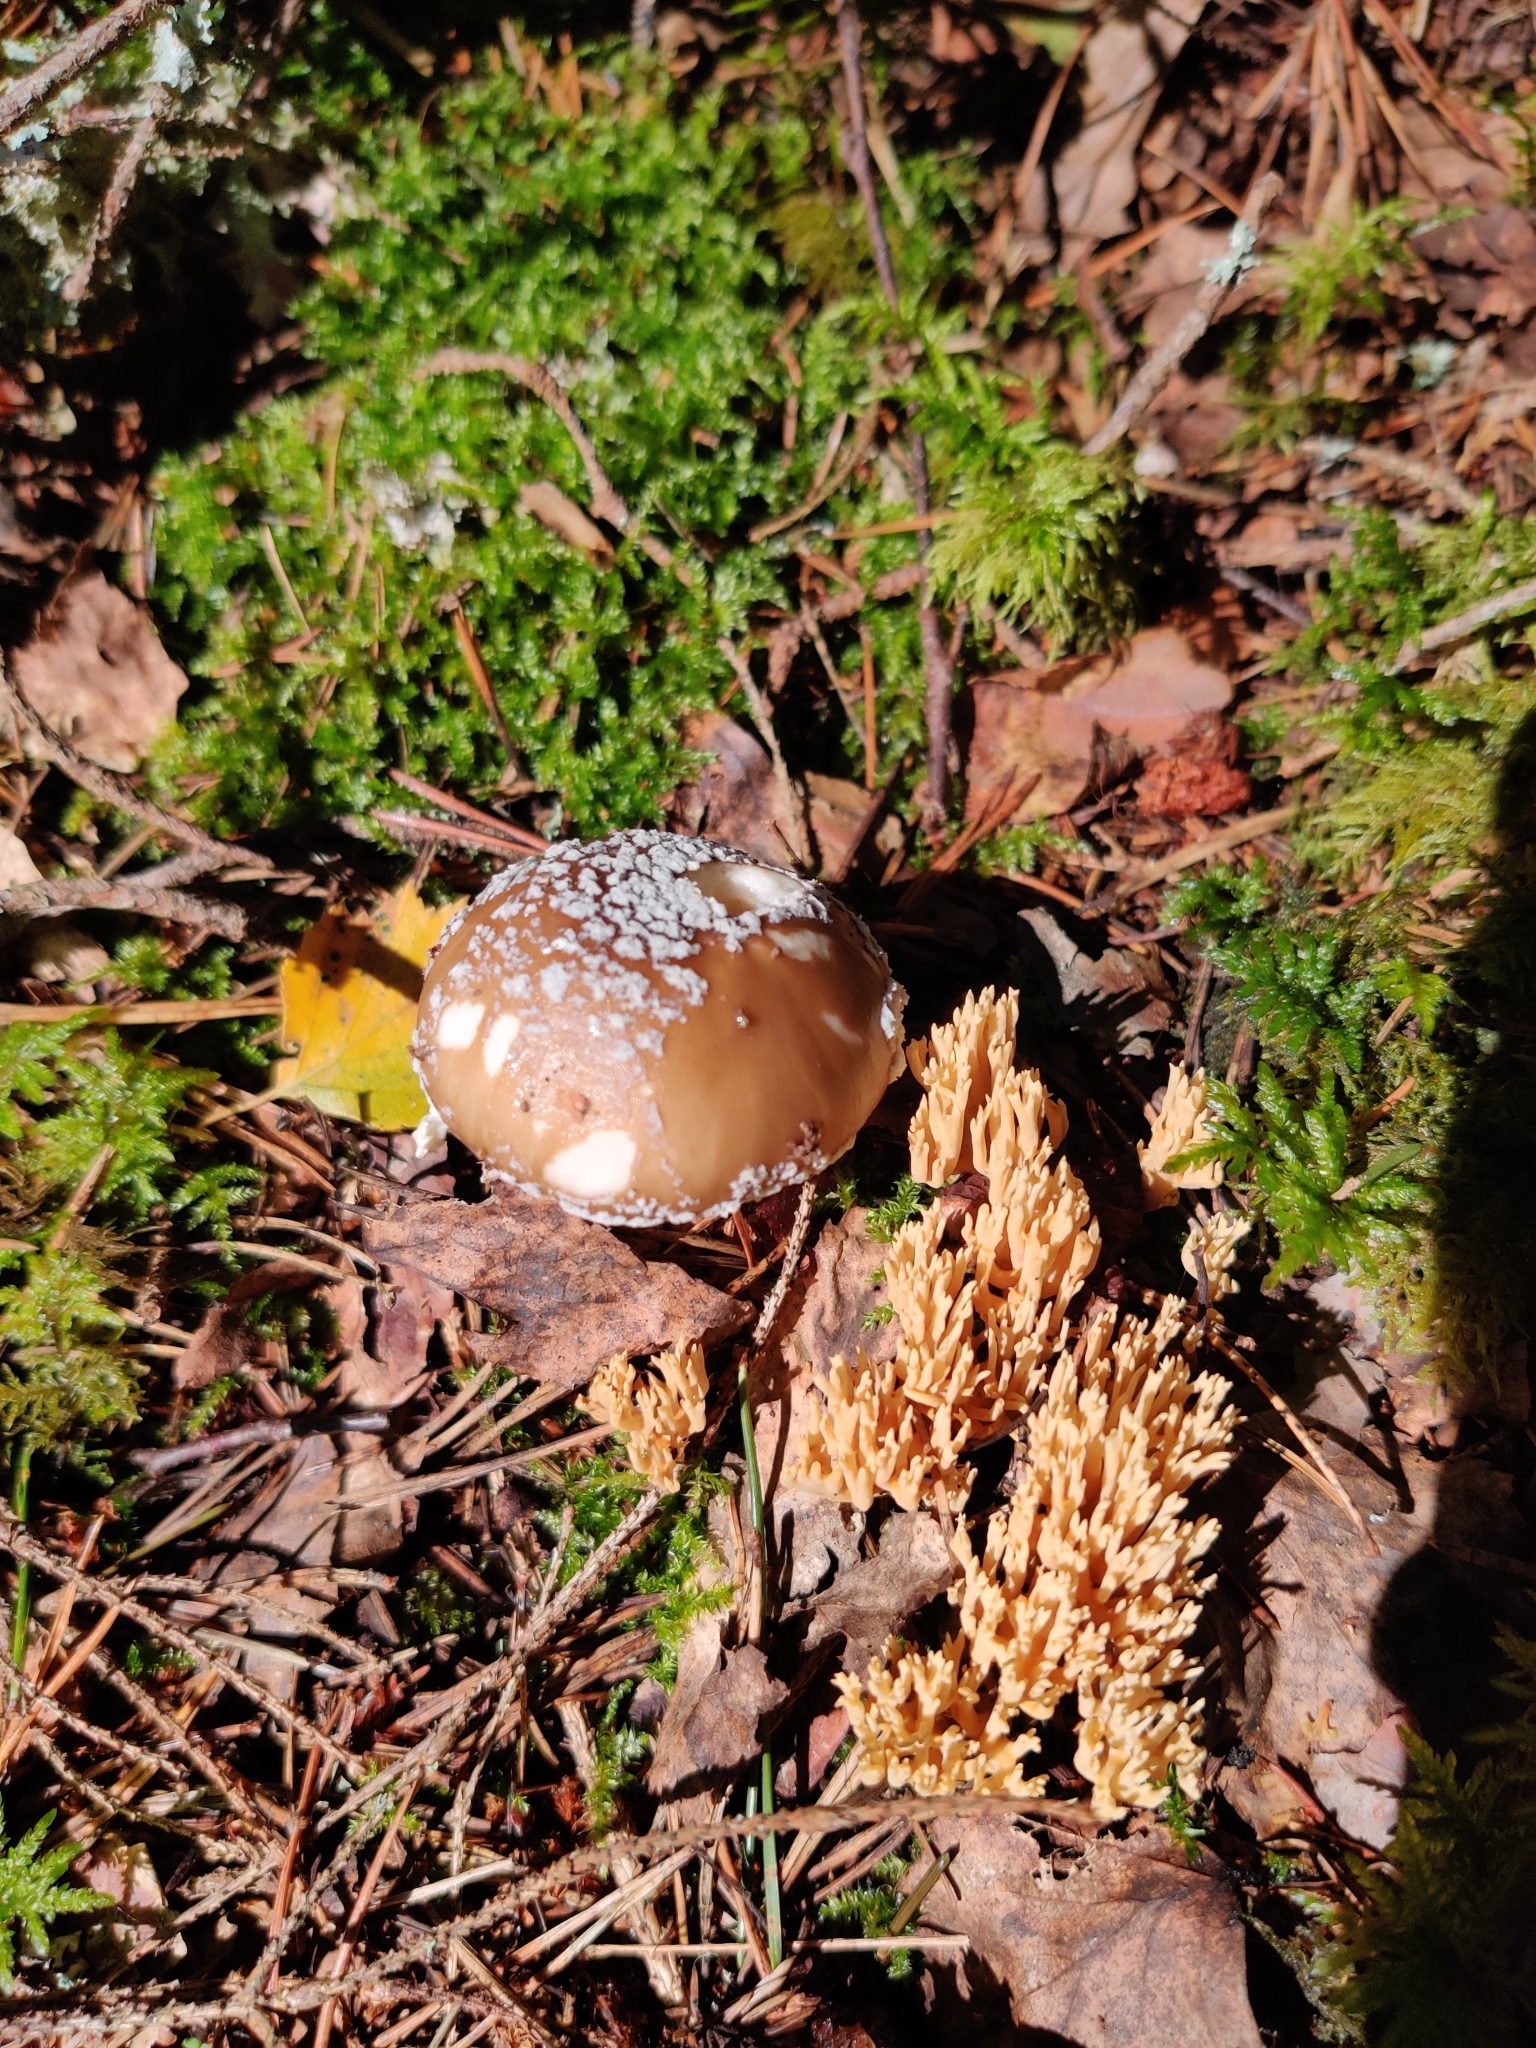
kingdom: Fungi
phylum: Basidiomycota
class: Agaricomycetes
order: Agaricales
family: Amanitaceae
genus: Amanita
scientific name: Amanita rubescens
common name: Blusher
